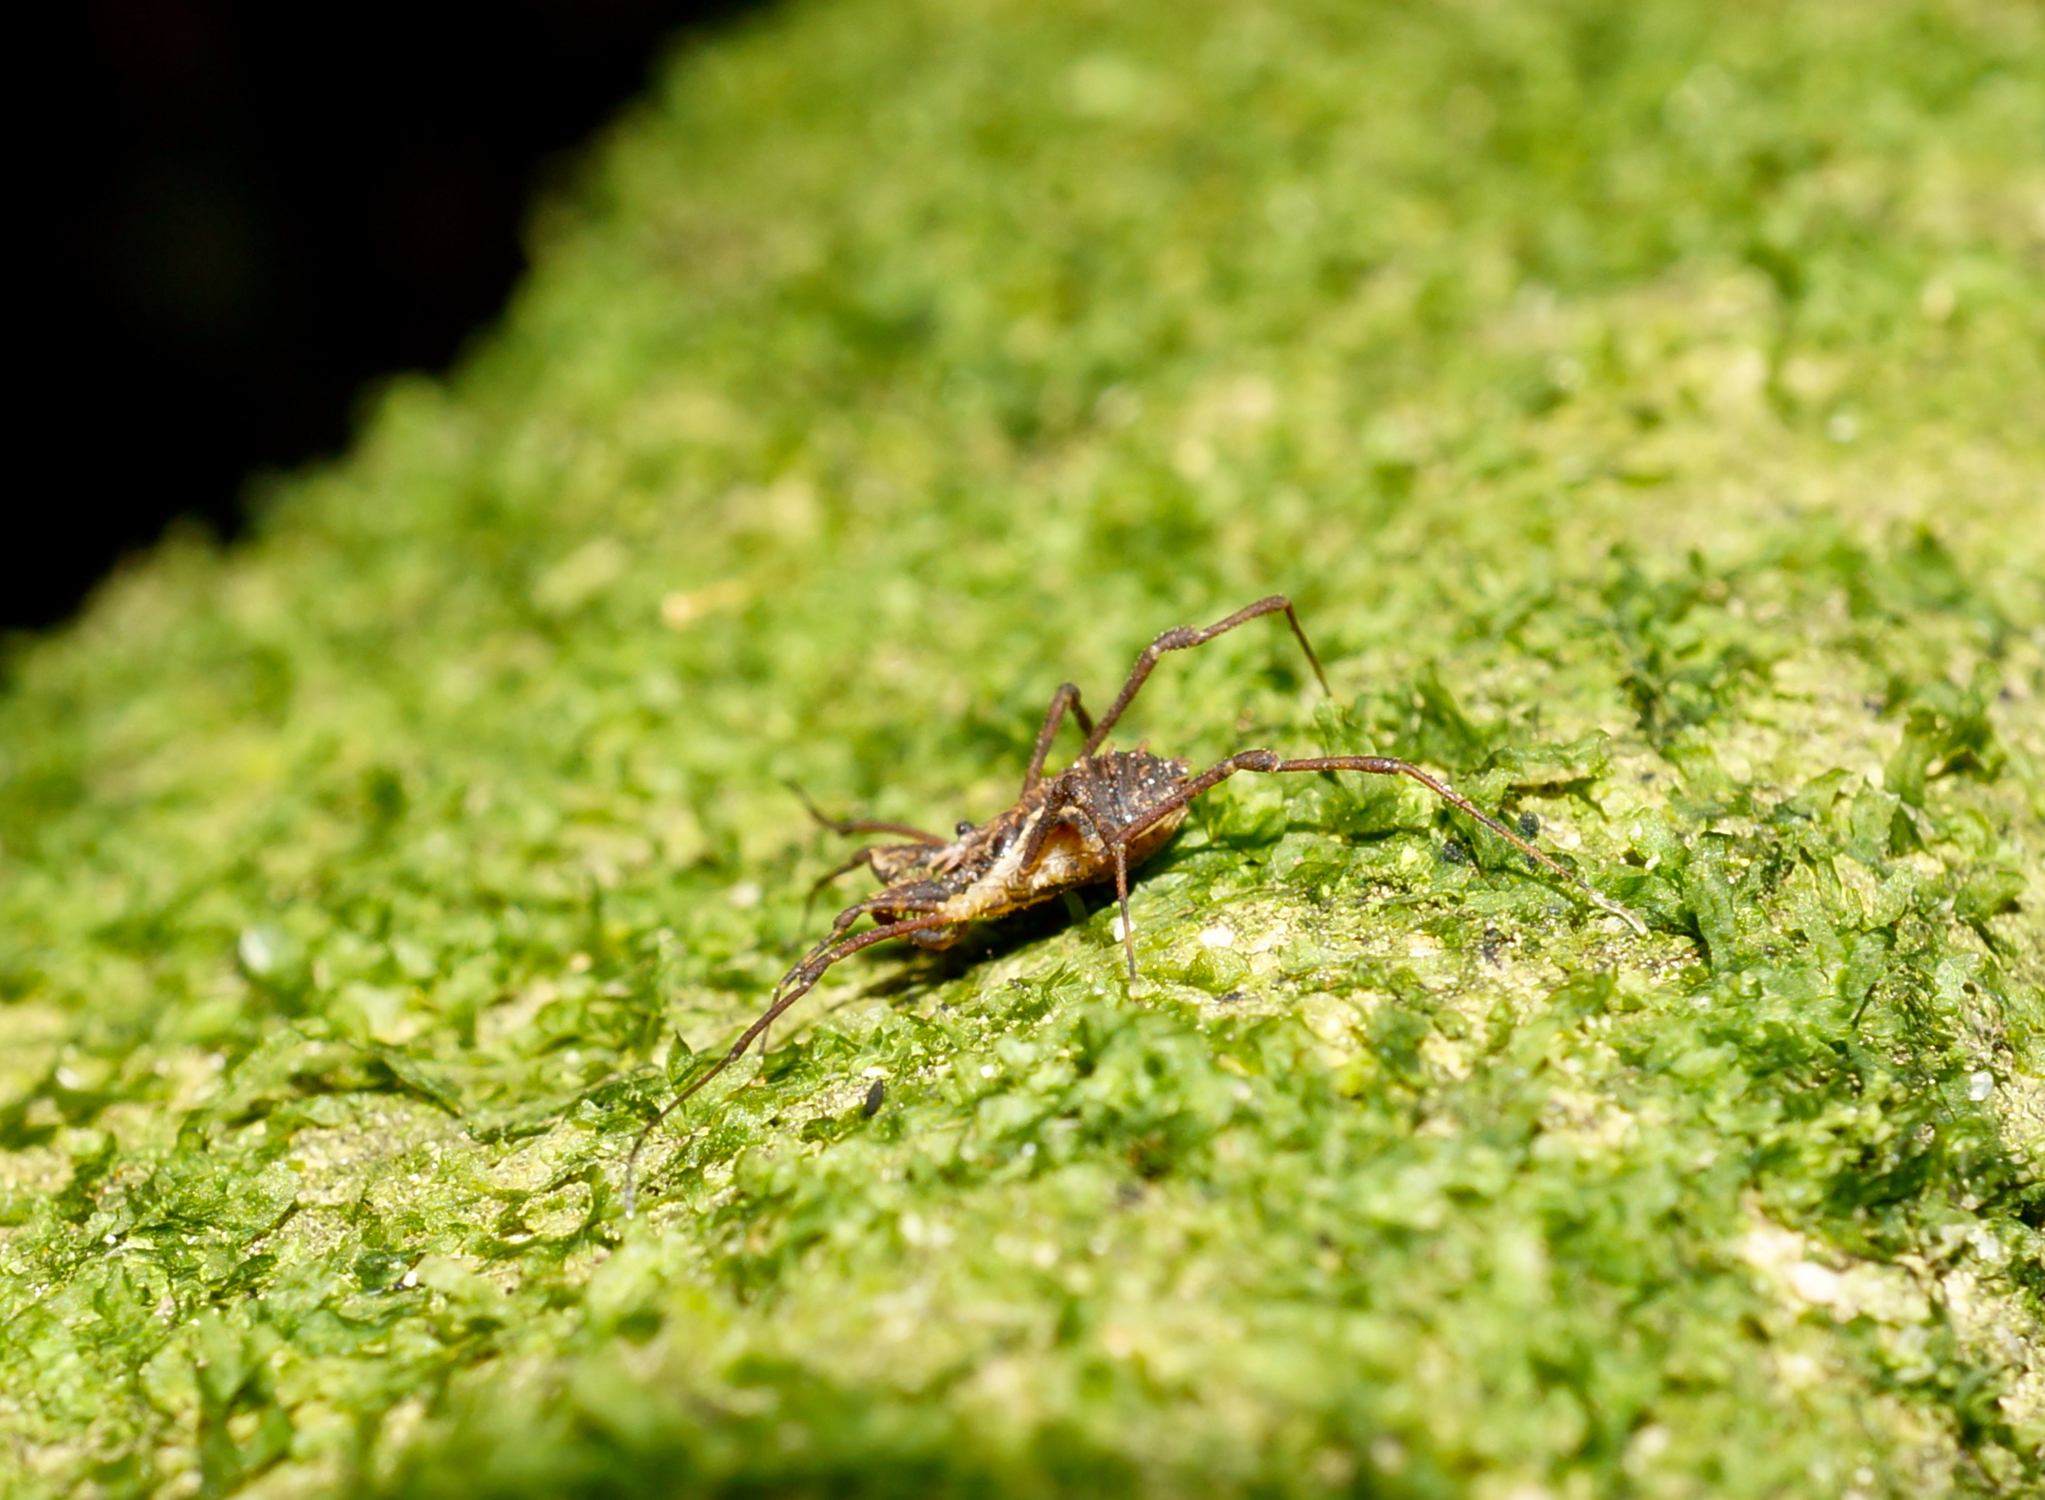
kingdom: Animalia
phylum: Arthropoda
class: Arachnida
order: Opiliones
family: Triaenonychidae
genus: Algidia
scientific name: Algidia chiltoni
